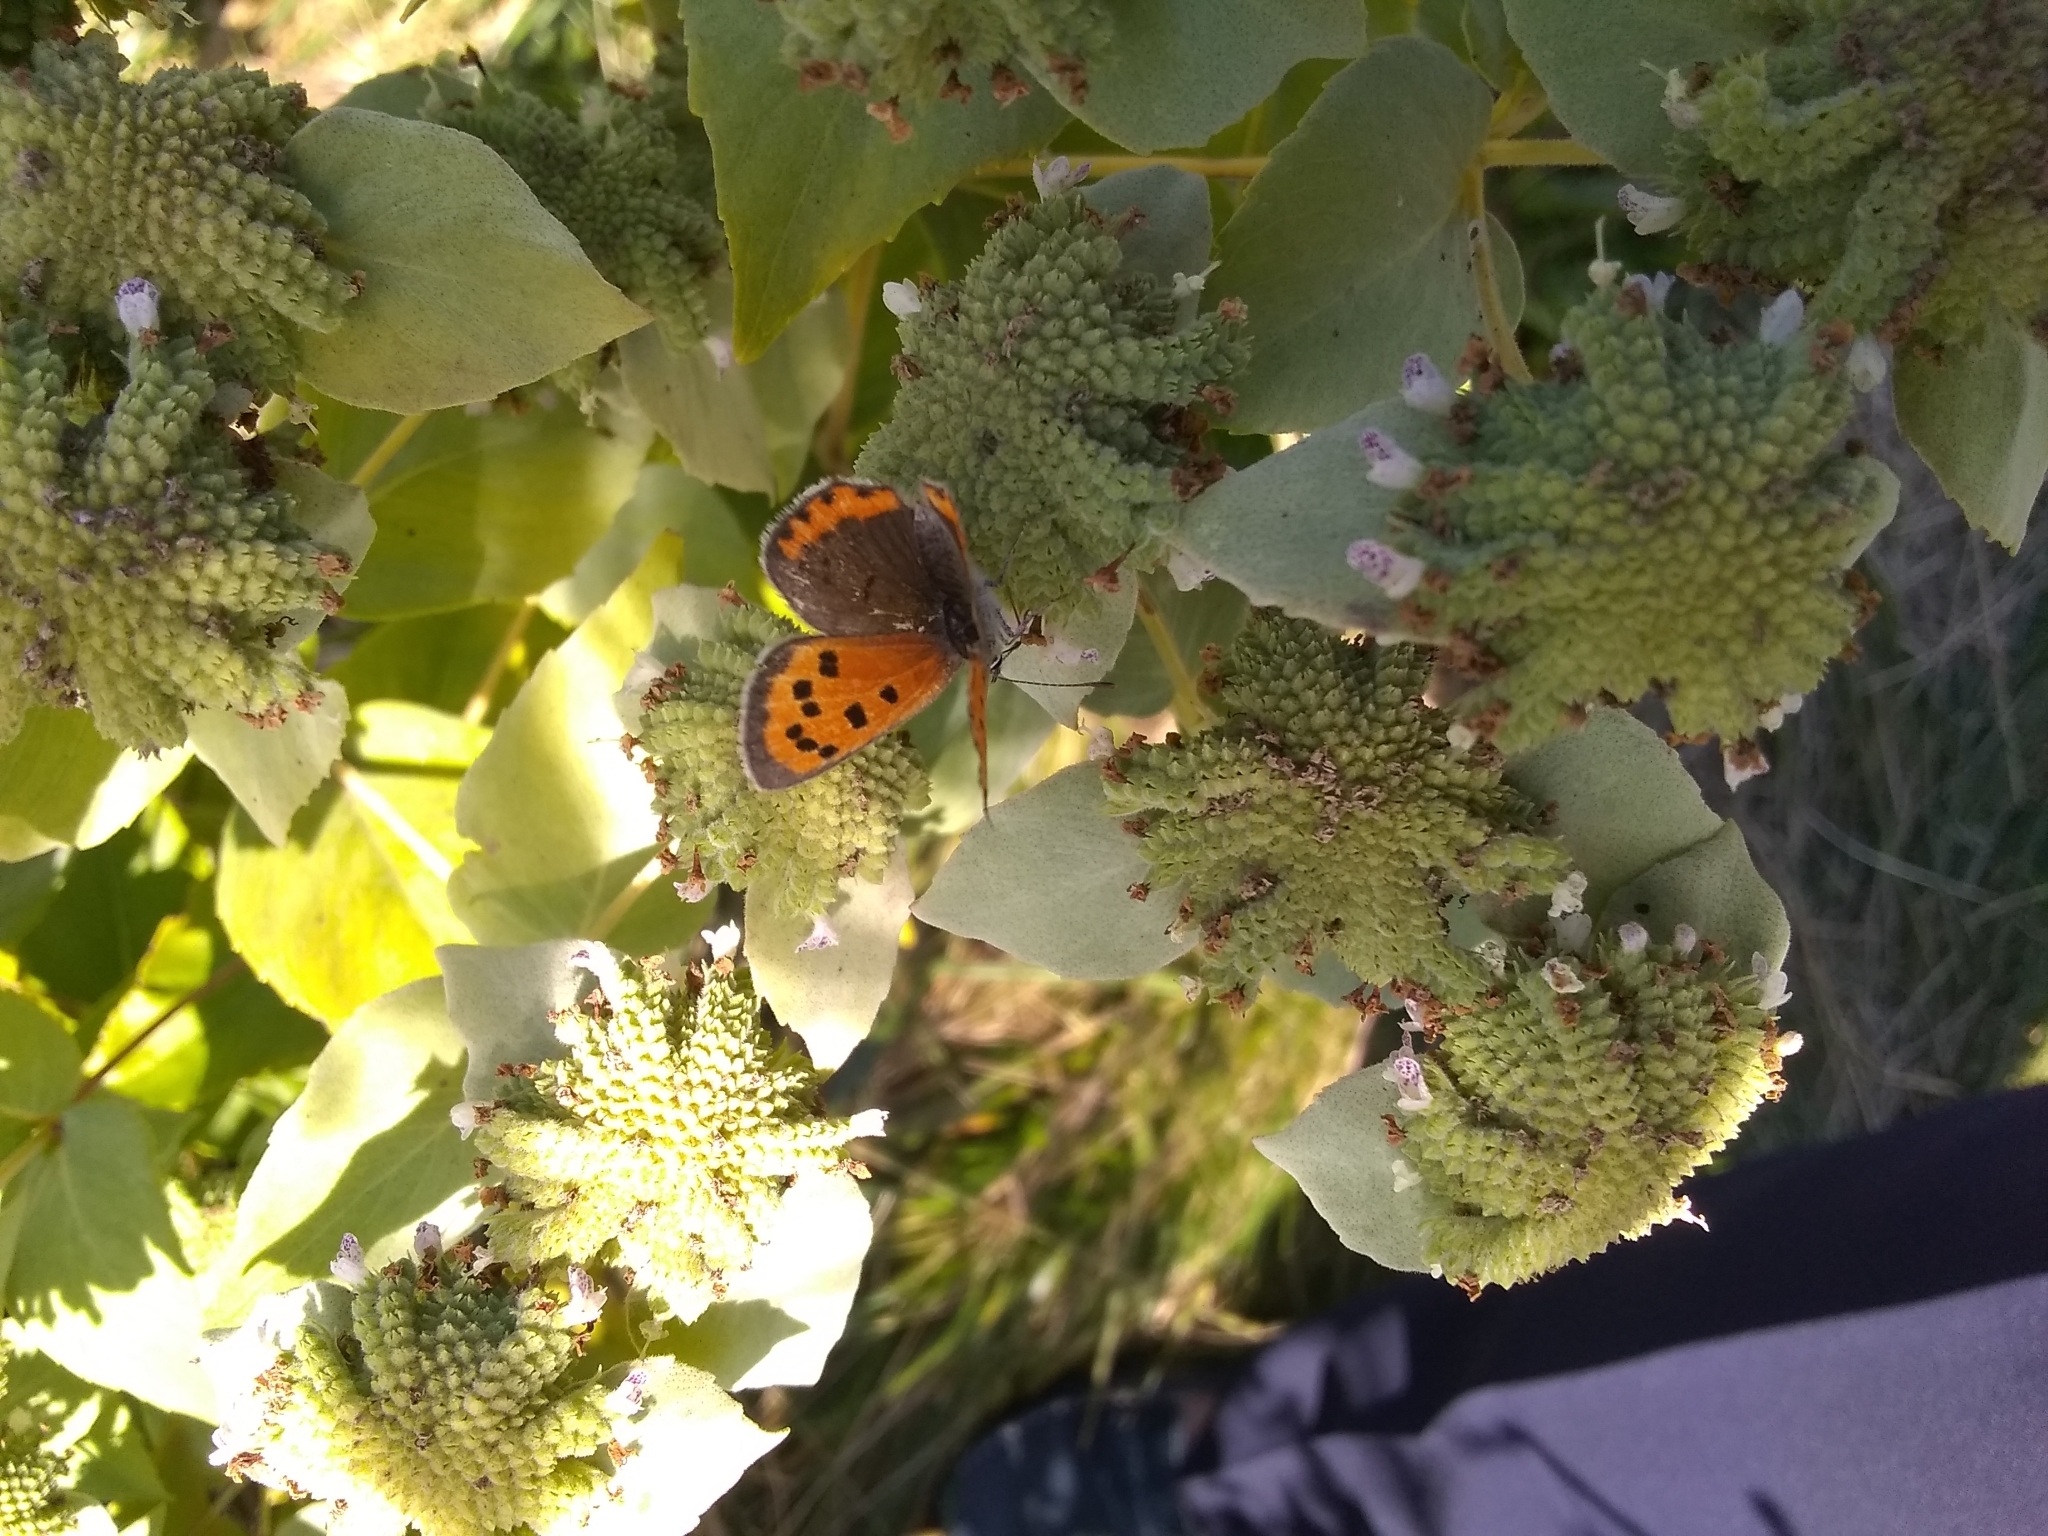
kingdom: Animalia
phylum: Arthropoda
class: Insecta
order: Lepidoptera
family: Lycaenidae
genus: Lycaena
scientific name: Lycaena hypophlaeas
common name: American copper
